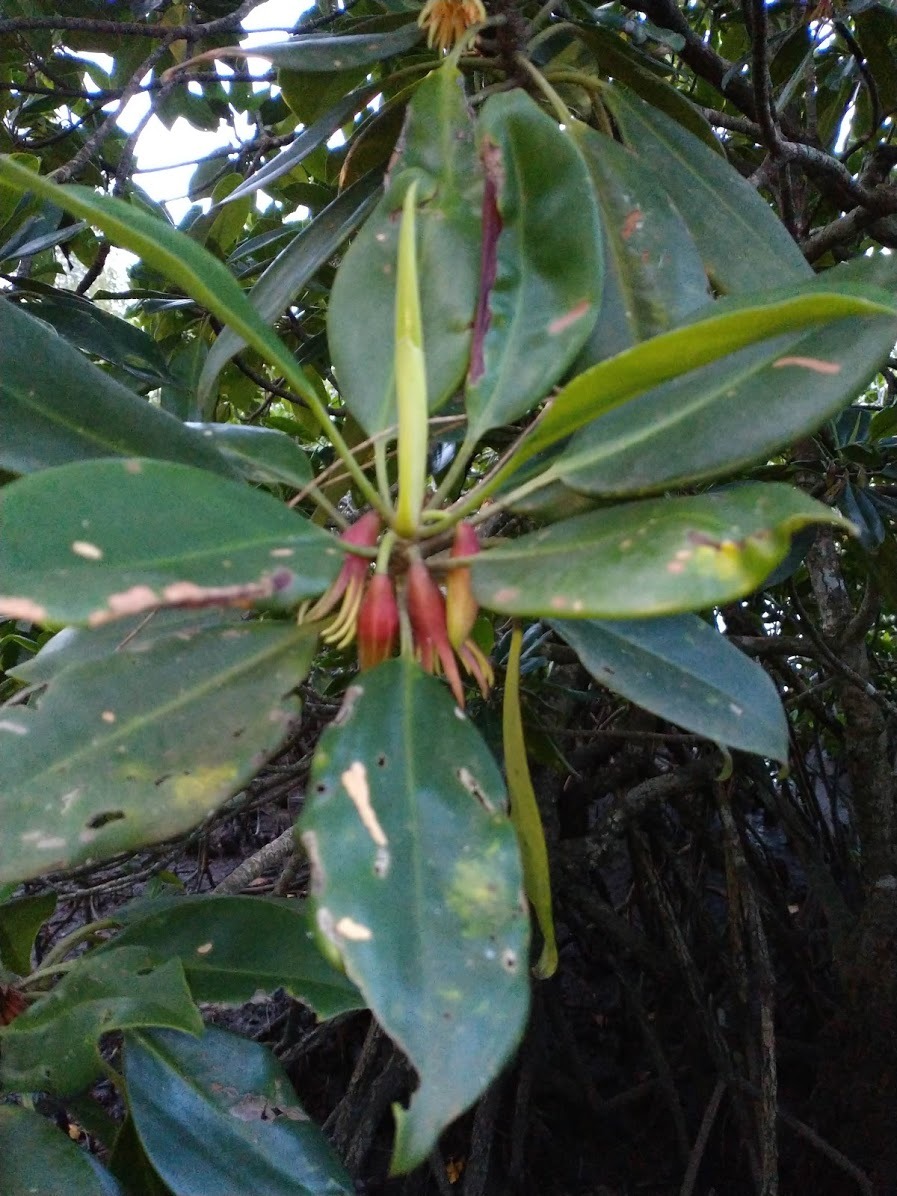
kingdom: Plantae
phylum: Tracheophyta
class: Magnoliopsida
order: Malpighiales
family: Rhizophoraceae
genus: Bruguiera
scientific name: Bruguiera gymnorhiza
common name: Oriental mangrove
